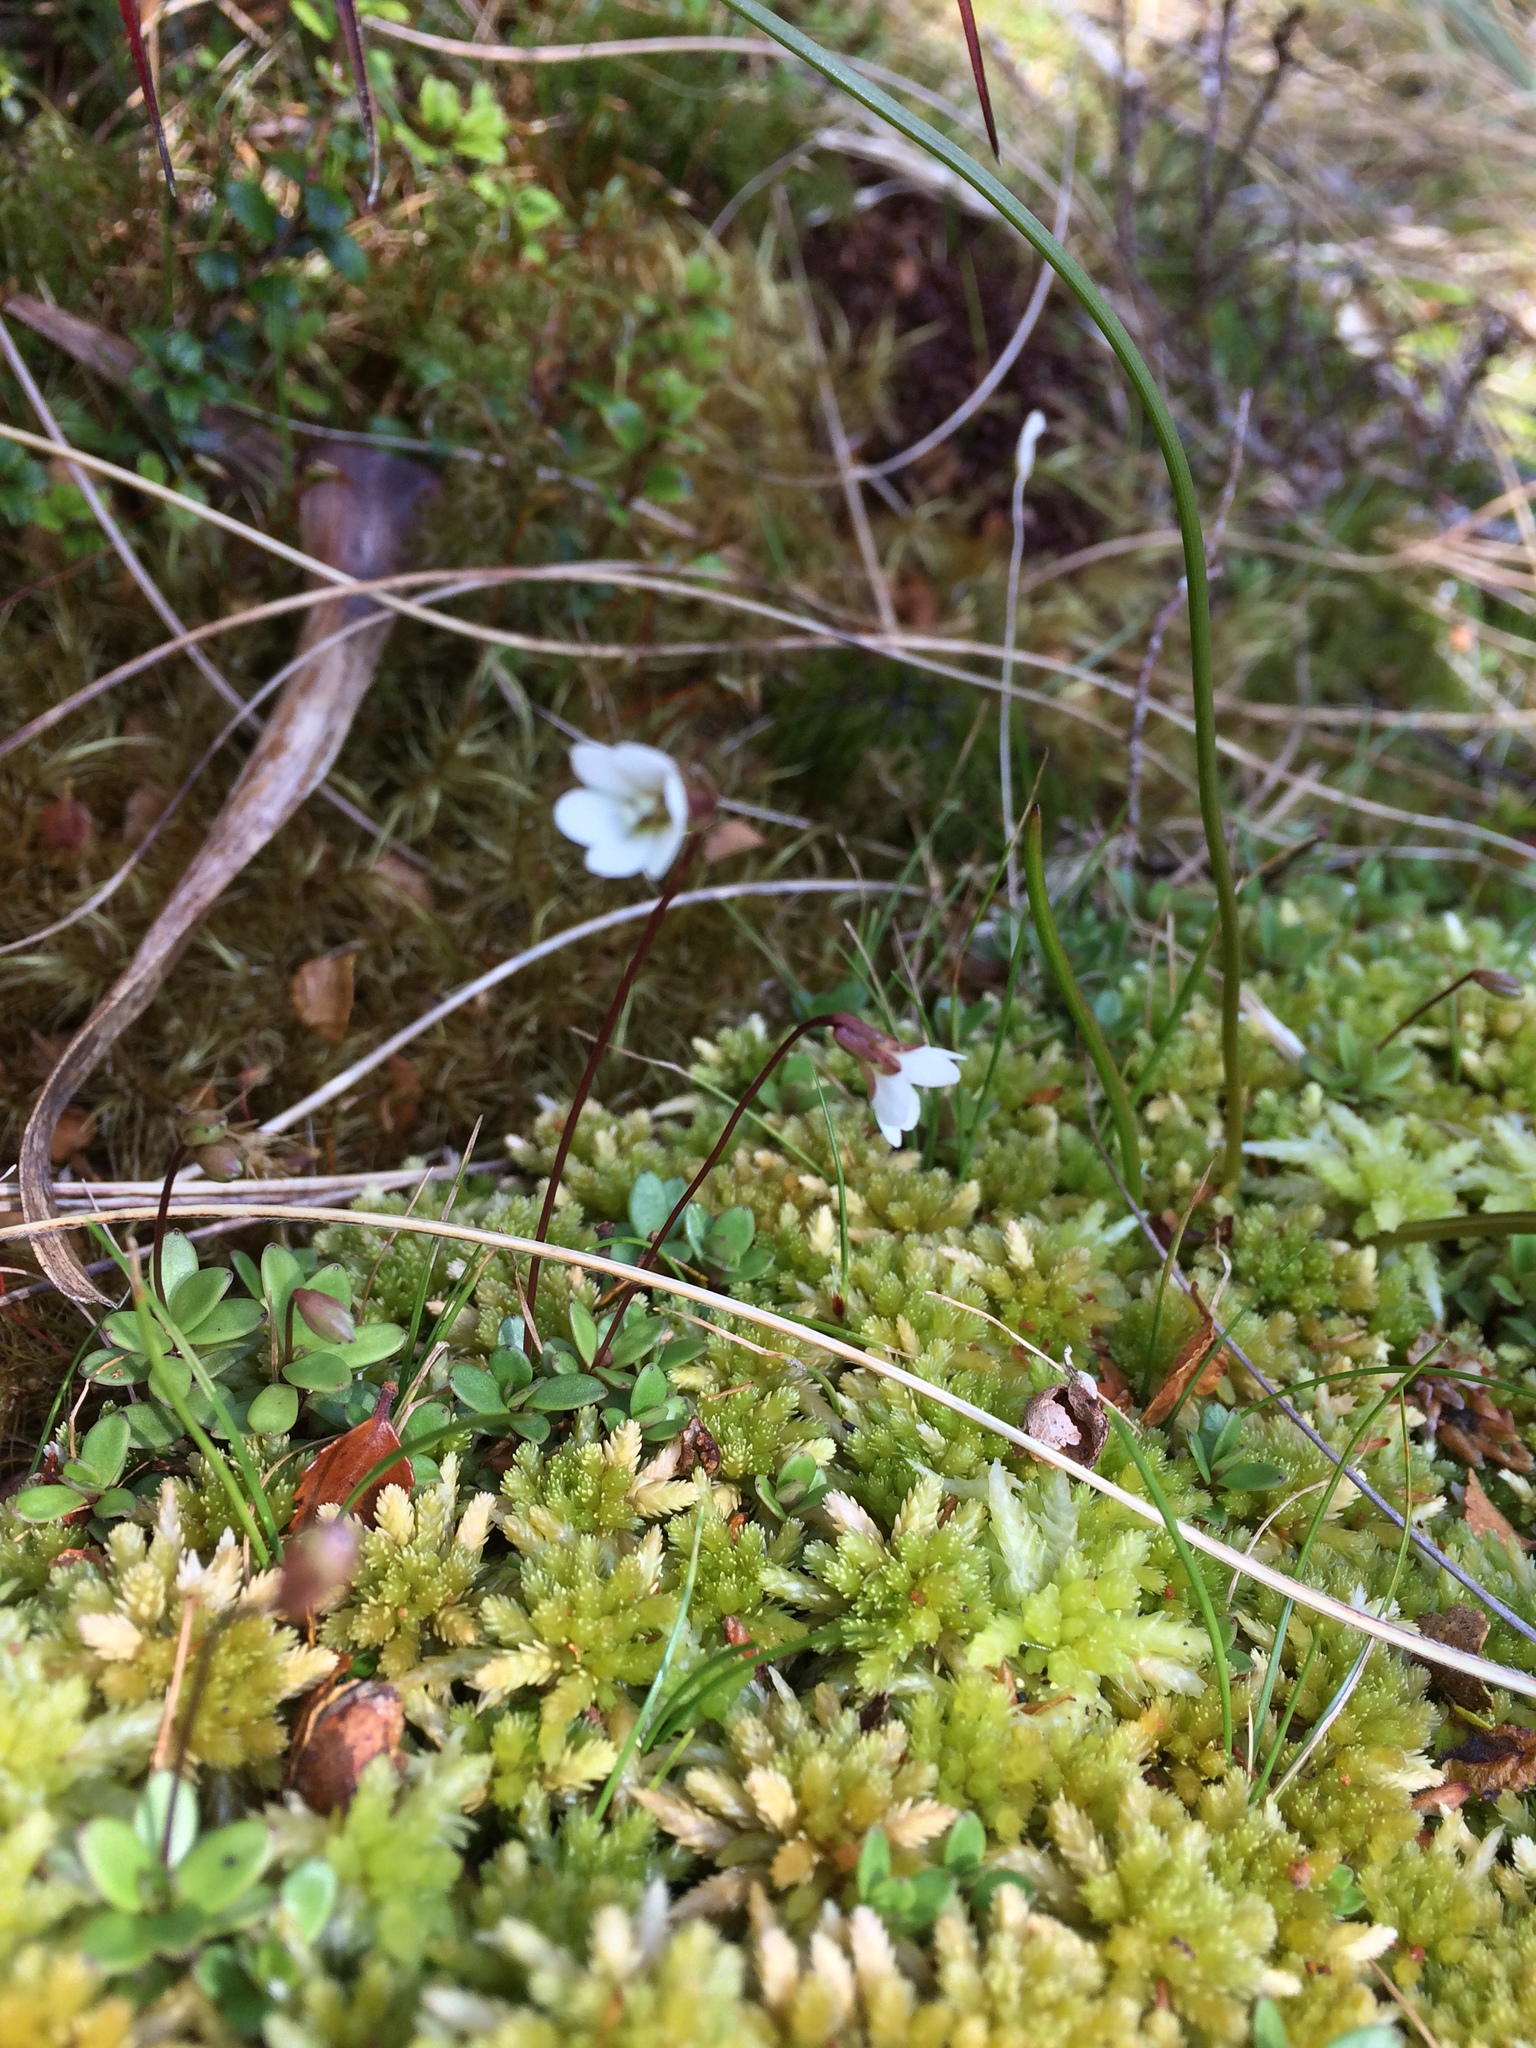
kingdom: Plantae
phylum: Tracheophyta
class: Magnoliopsida
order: Asterales
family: Stylidiaceae
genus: Forstera
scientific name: Forstera tenella
